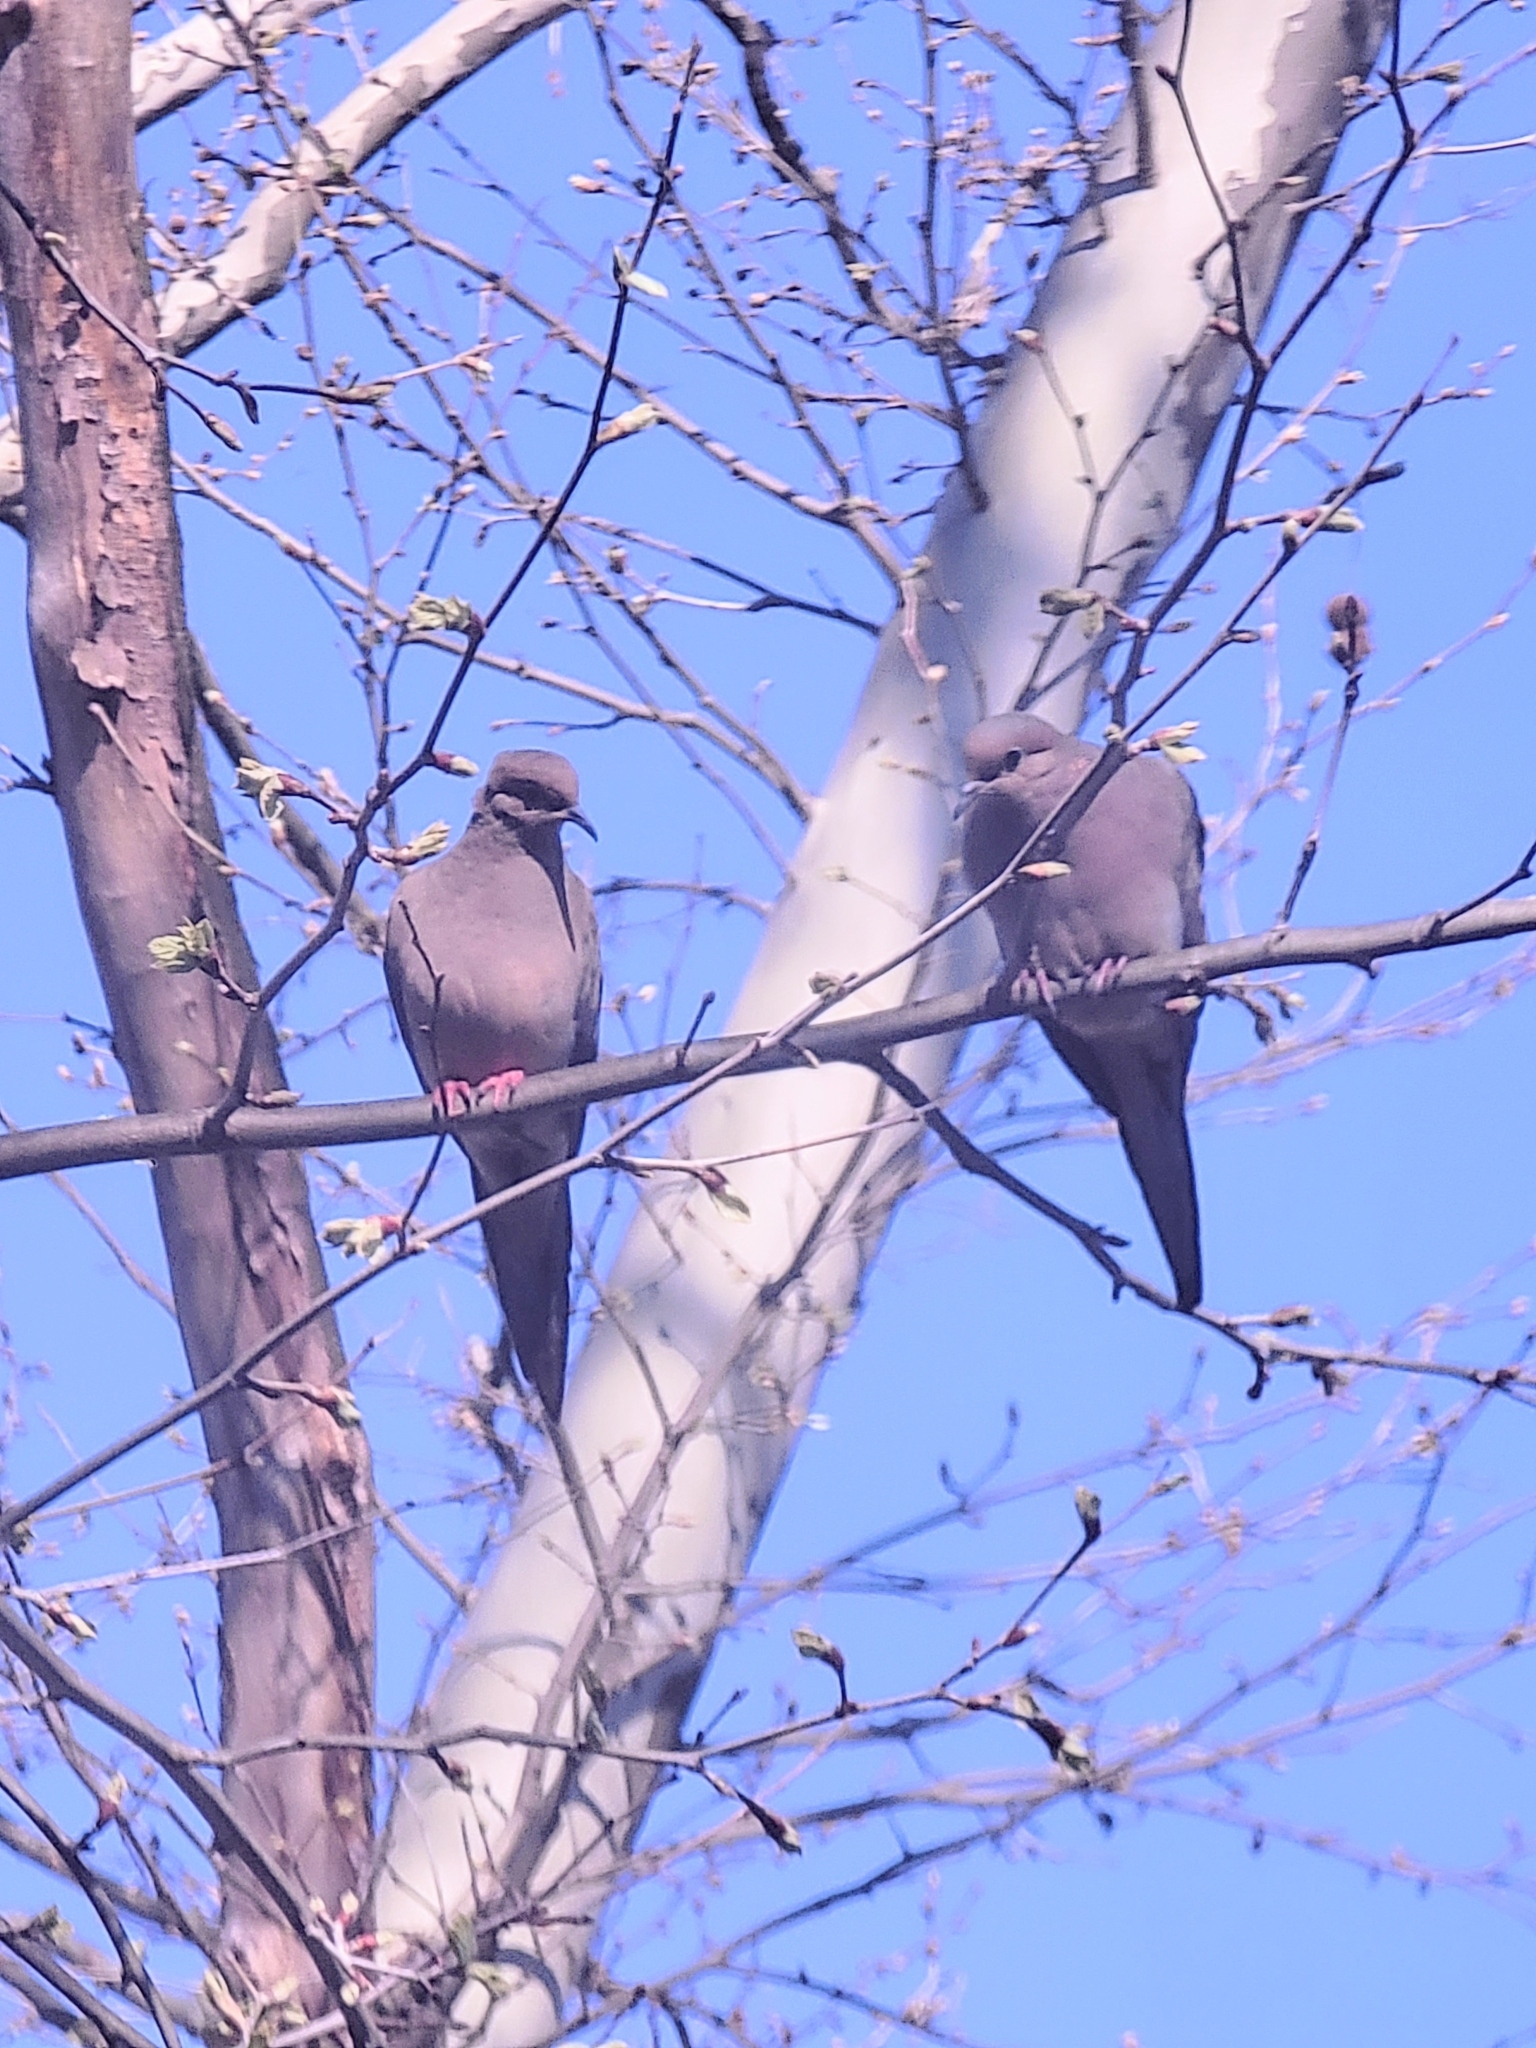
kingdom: Animalia
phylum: Chordata
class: Aves
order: Columbiformes
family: Columbidae
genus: Zenaida
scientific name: Zenaida macroura
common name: Mourning dove
